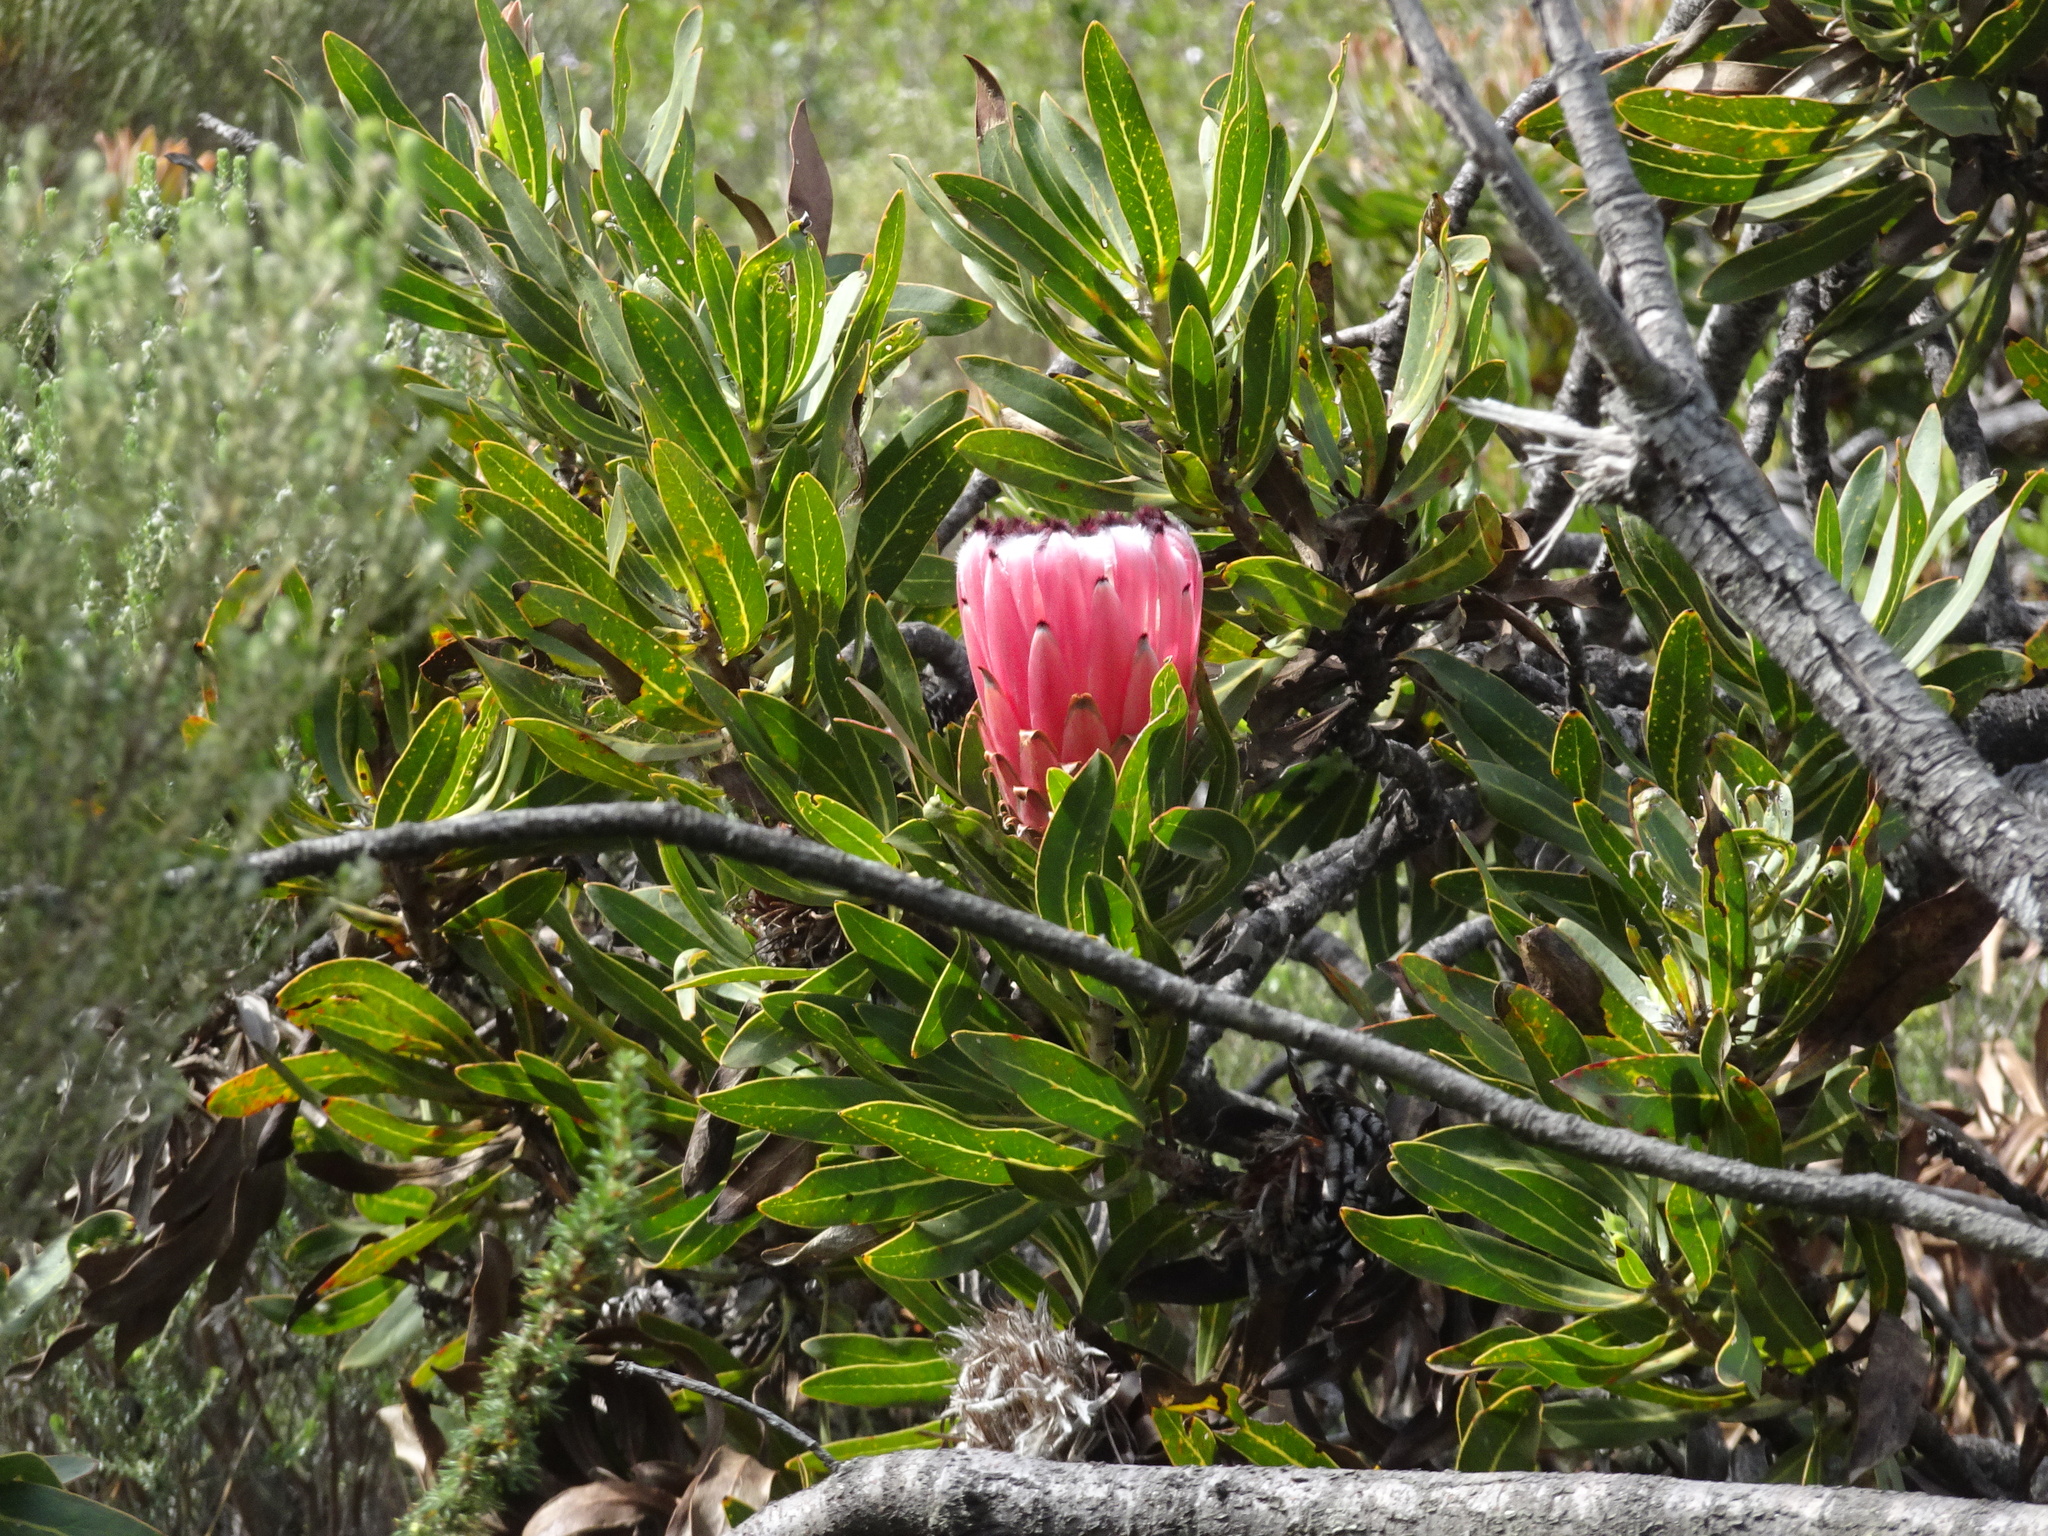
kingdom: Plantae
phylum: Tracheophyta
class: Magnoliopsida
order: Proteales
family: Proteaceae
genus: Protea
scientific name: Protea neriifolia
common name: Blue sugarbush
